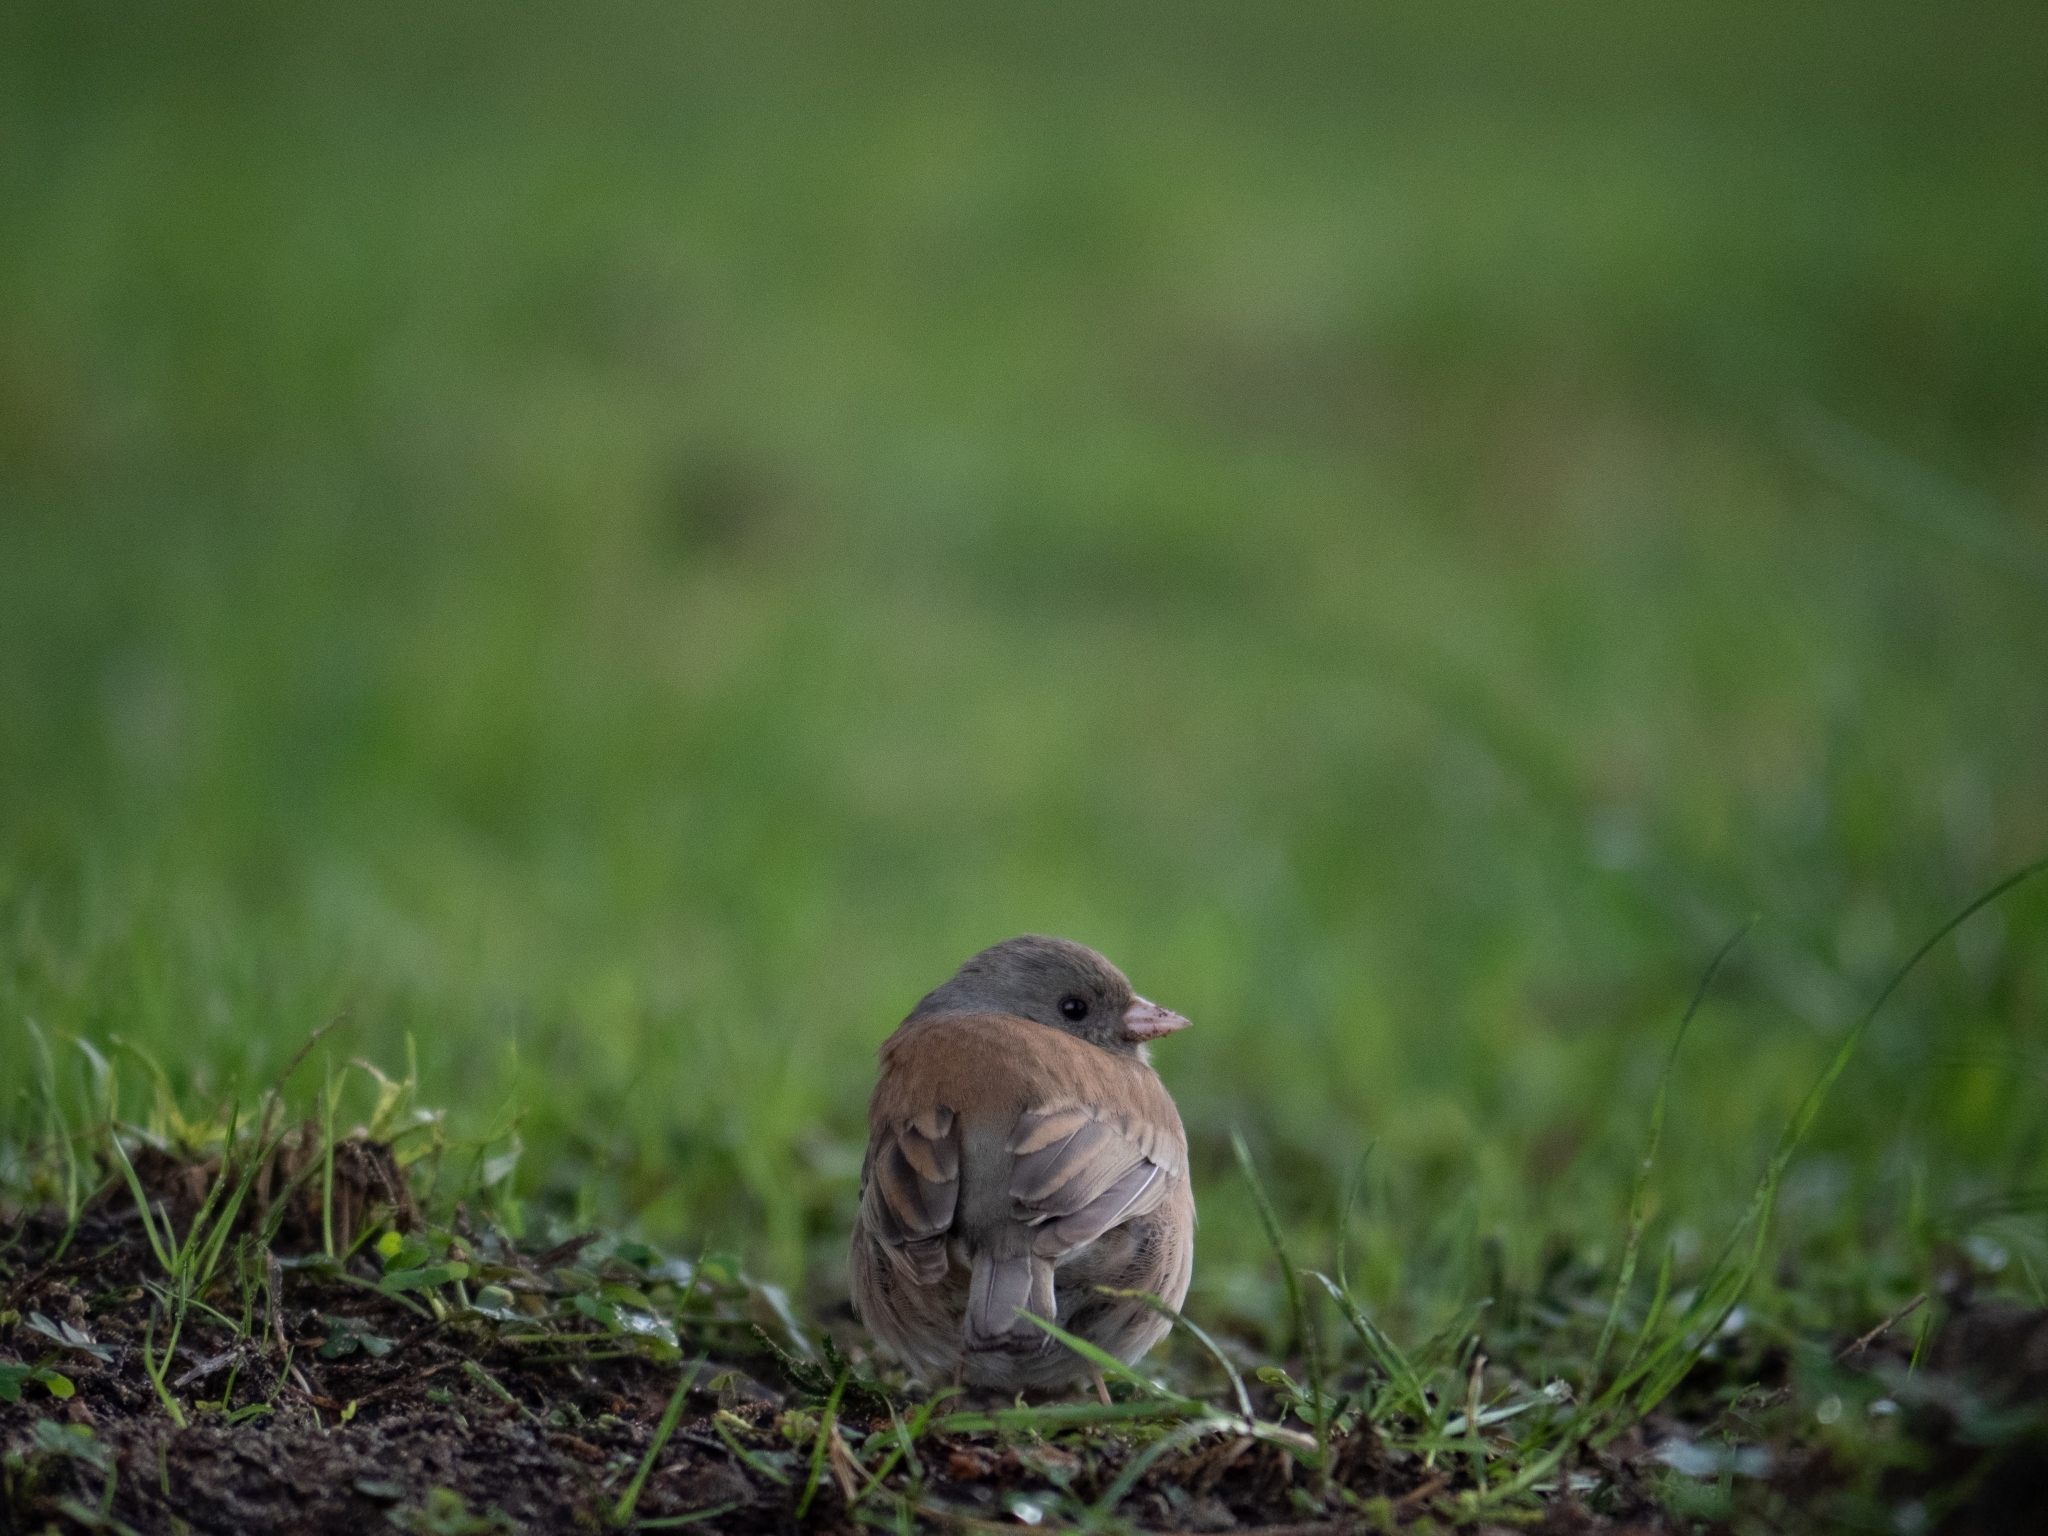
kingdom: Animalia
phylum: Chordata
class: Aves
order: Passeriformes
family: Passerellidae
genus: Junco
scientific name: Junco hyemalis
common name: Dark-eyed junco
